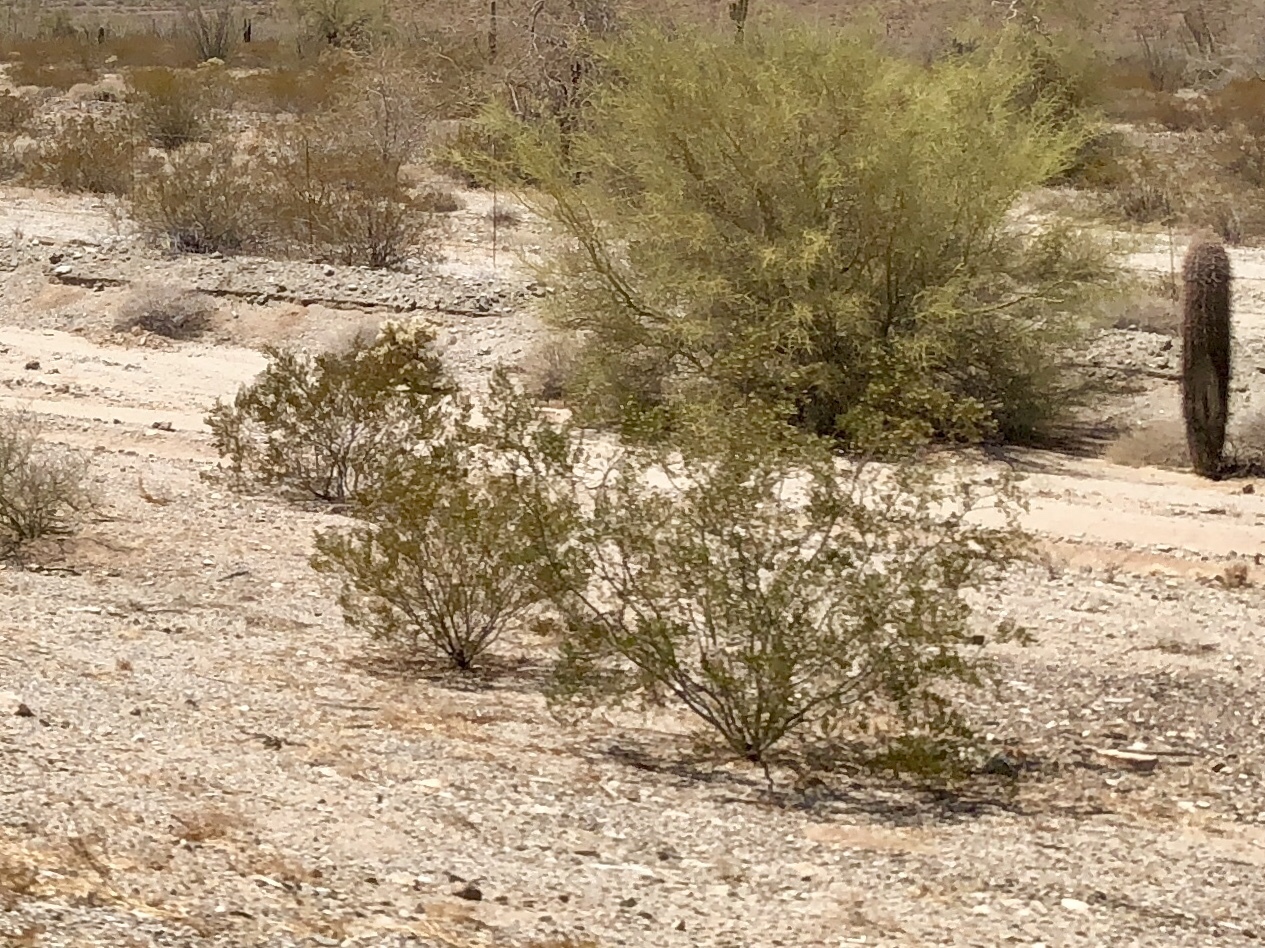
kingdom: Plantae
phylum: Tracheophyta
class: Magnoliopsida
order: Zygophyllales
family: Zygophyllaceae
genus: Larrea
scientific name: Larrea tridentata
